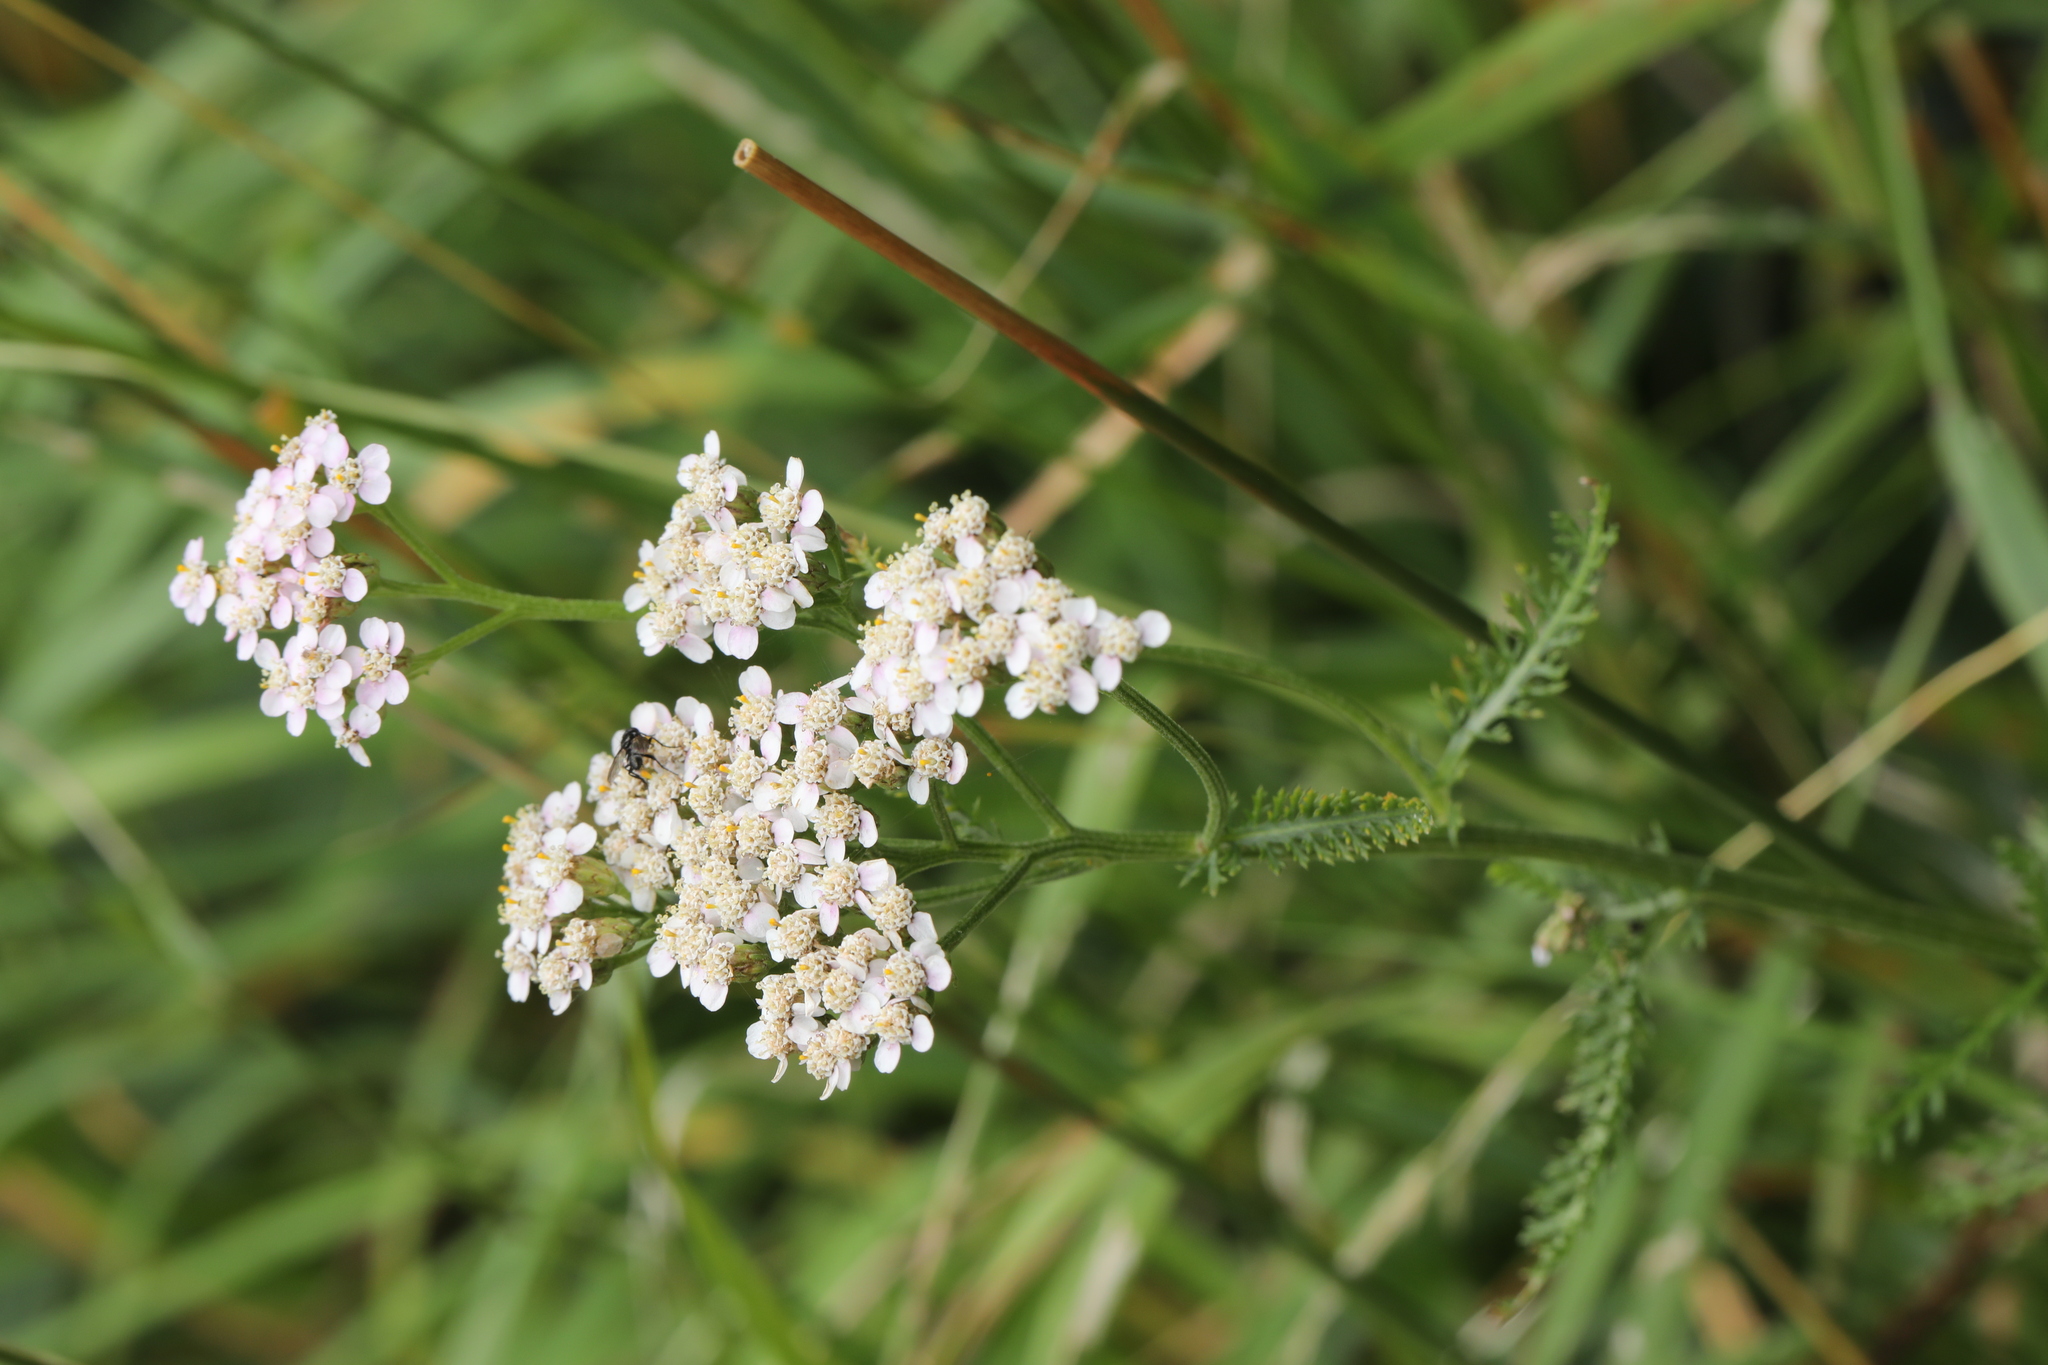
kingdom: Plantae
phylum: Tracheophyta
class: Magnoliopsida
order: Asterales
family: Asteraceae
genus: Achillea
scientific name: Achillea millefolium
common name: Yarrow
